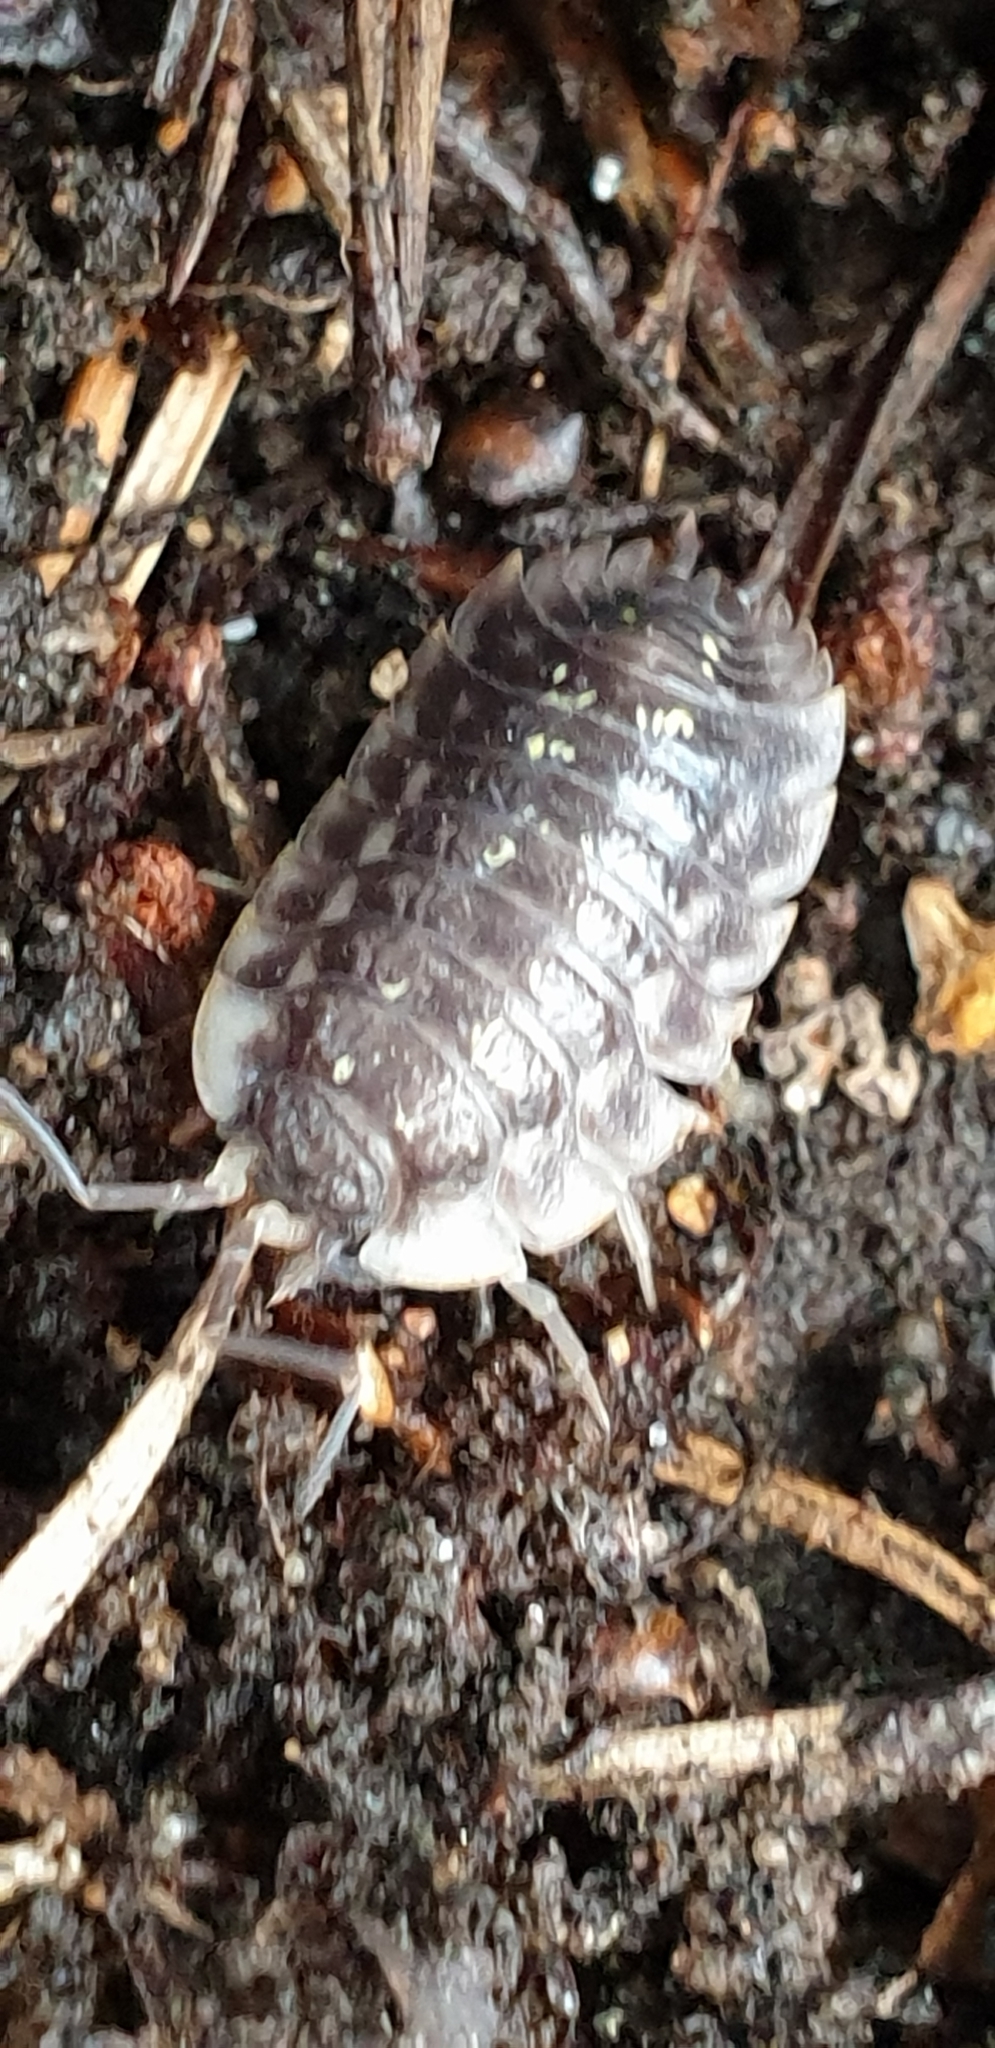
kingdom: Animalia
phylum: Arthropoda
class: Malacostraca
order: Isopoda
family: Oniscidae
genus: Oniscus
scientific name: Oniscus asellus
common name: Common shiny woodlouse
